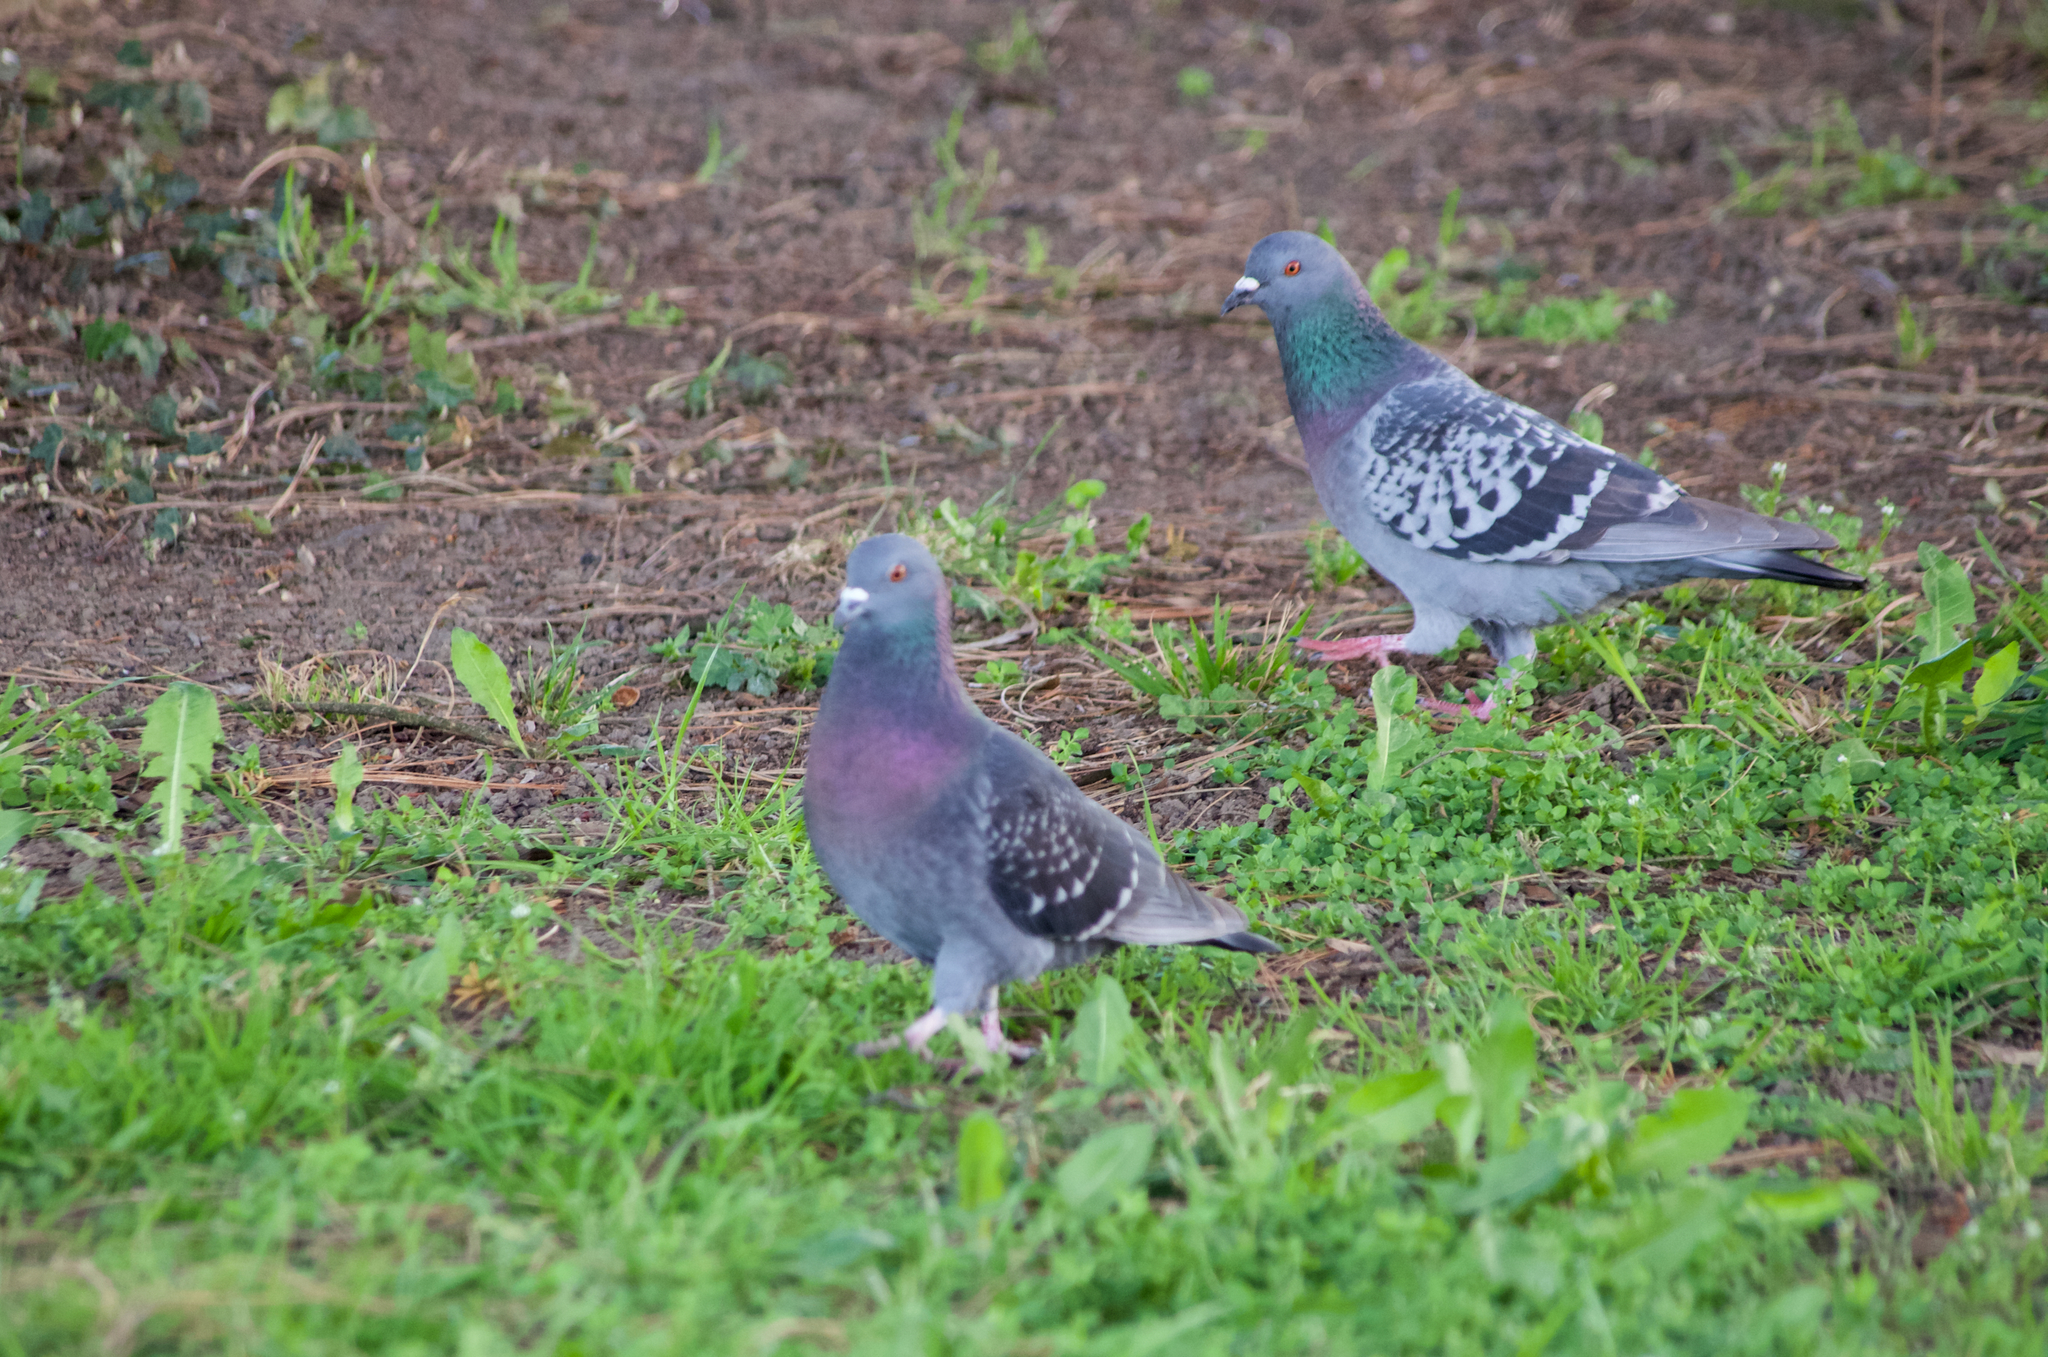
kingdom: Animalia
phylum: Chordata
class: Aves
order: Columbiformes
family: Columbidae
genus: Columba
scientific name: Columba livia
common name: Rock pigeon
